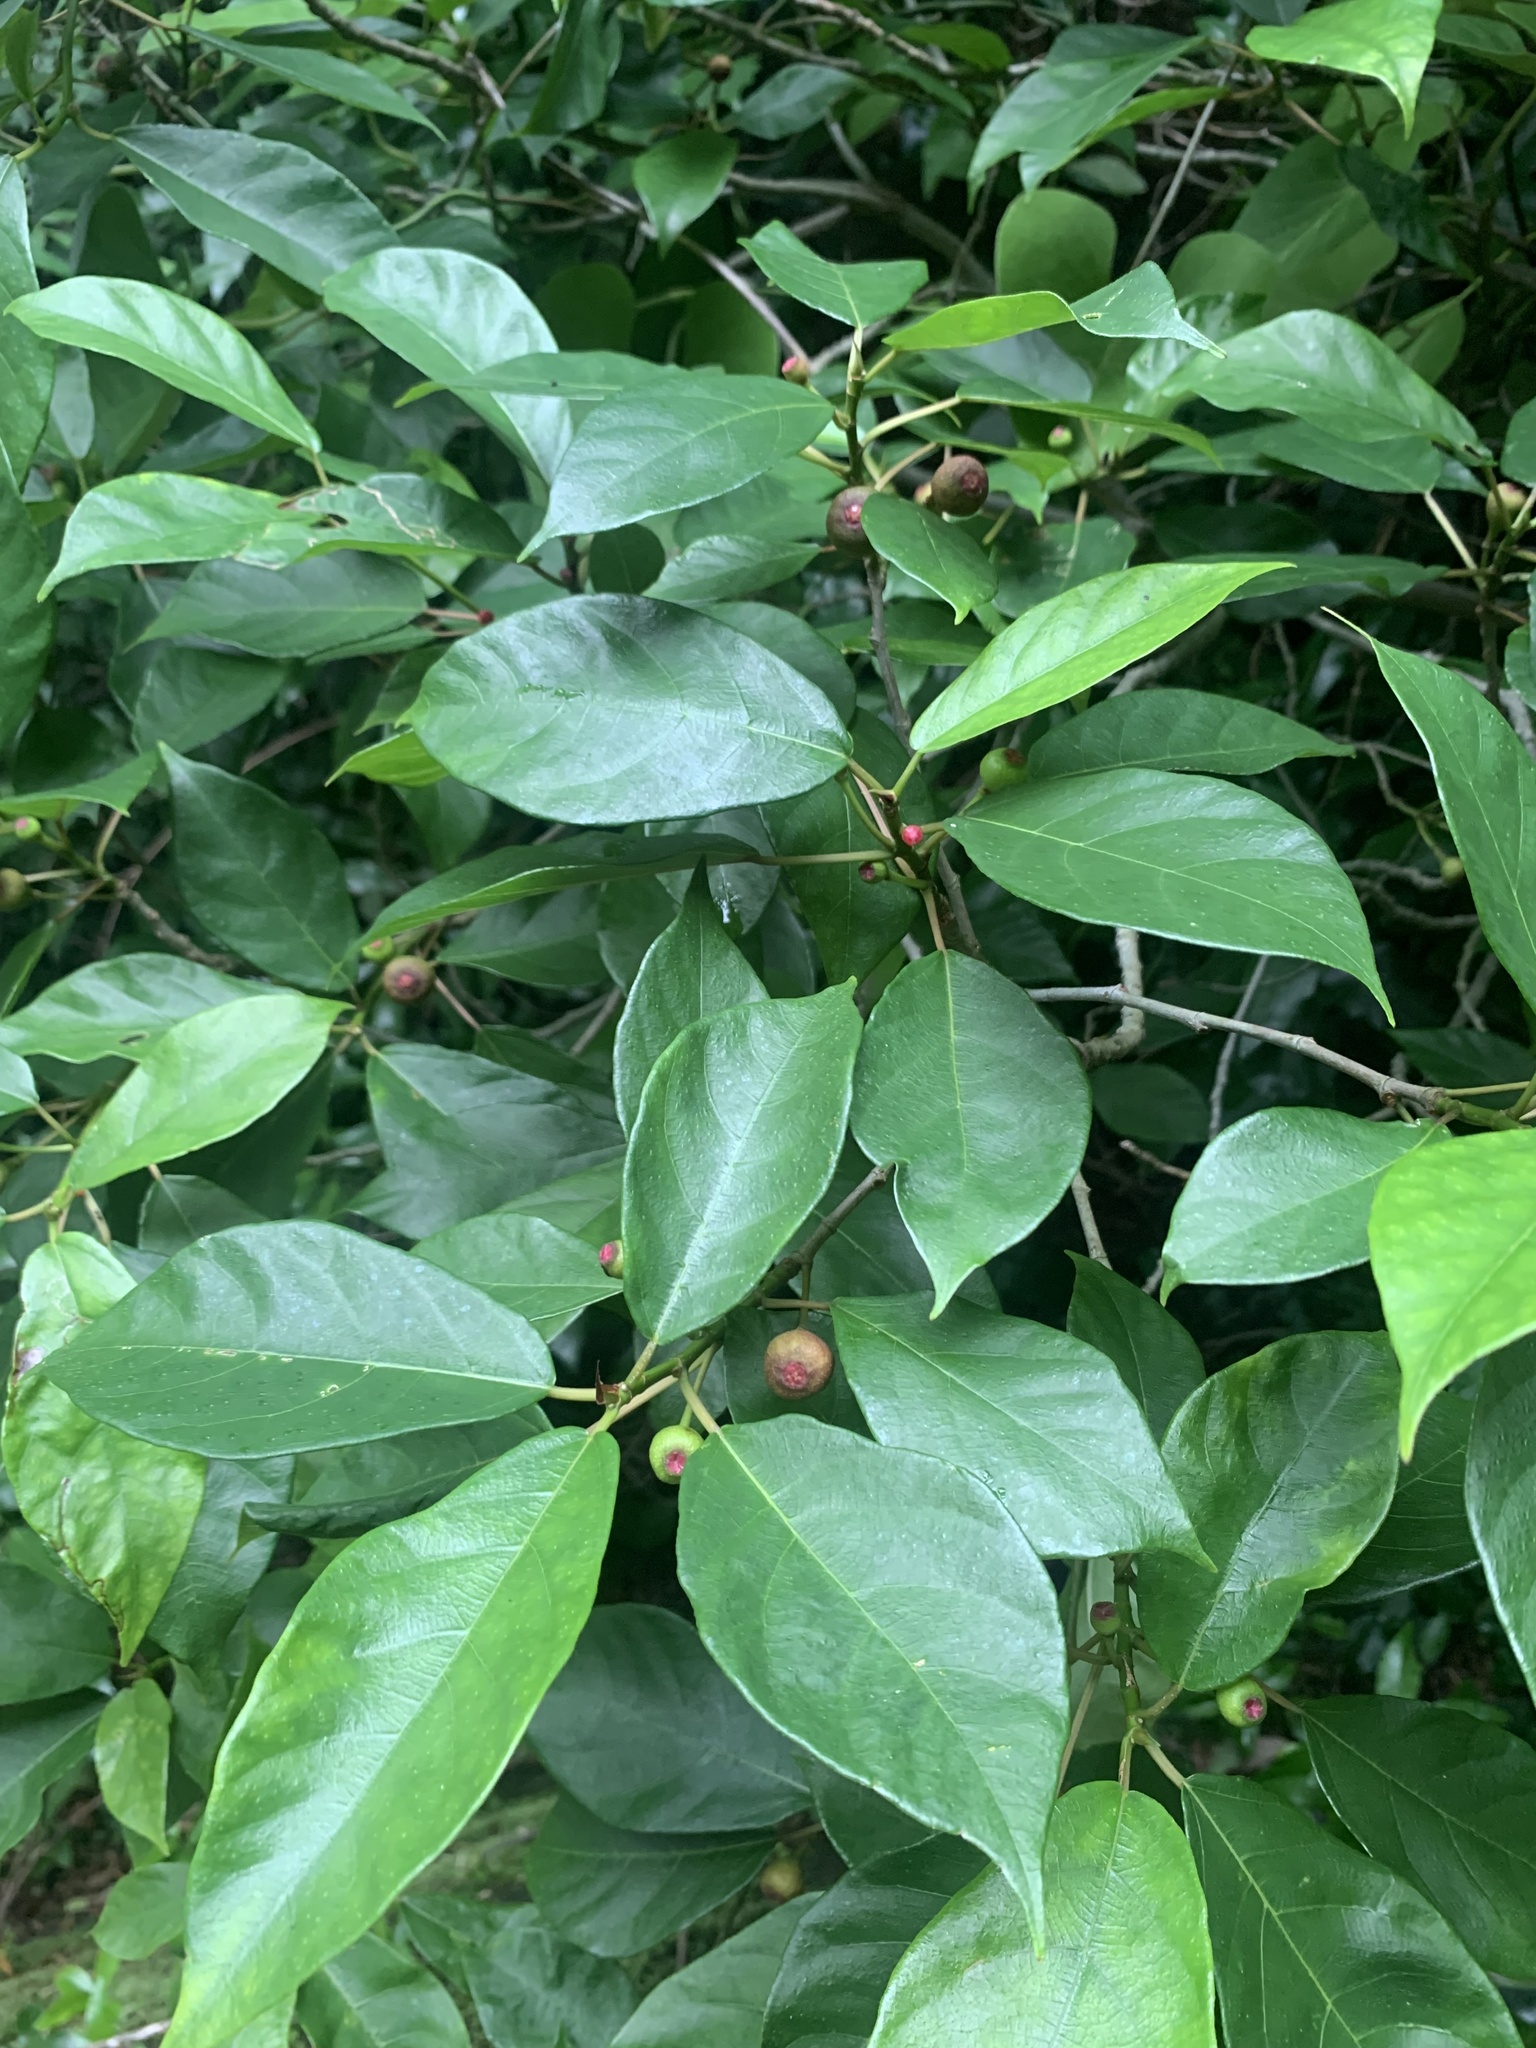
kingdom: Plantae
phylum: Tracheophyta
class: Magnoliopsida
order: Rosales
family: Moraceae
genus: Ficus
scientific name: Ficus erecta
